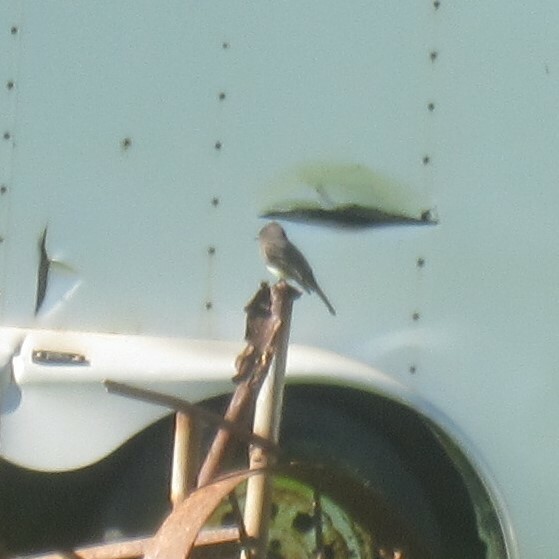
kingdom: Animalia
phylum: Chordata
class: Aves
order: Passeriformes
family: Tyrannidae
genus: Sayornis
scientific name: Sayornis nigricans
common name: Black phoebe
